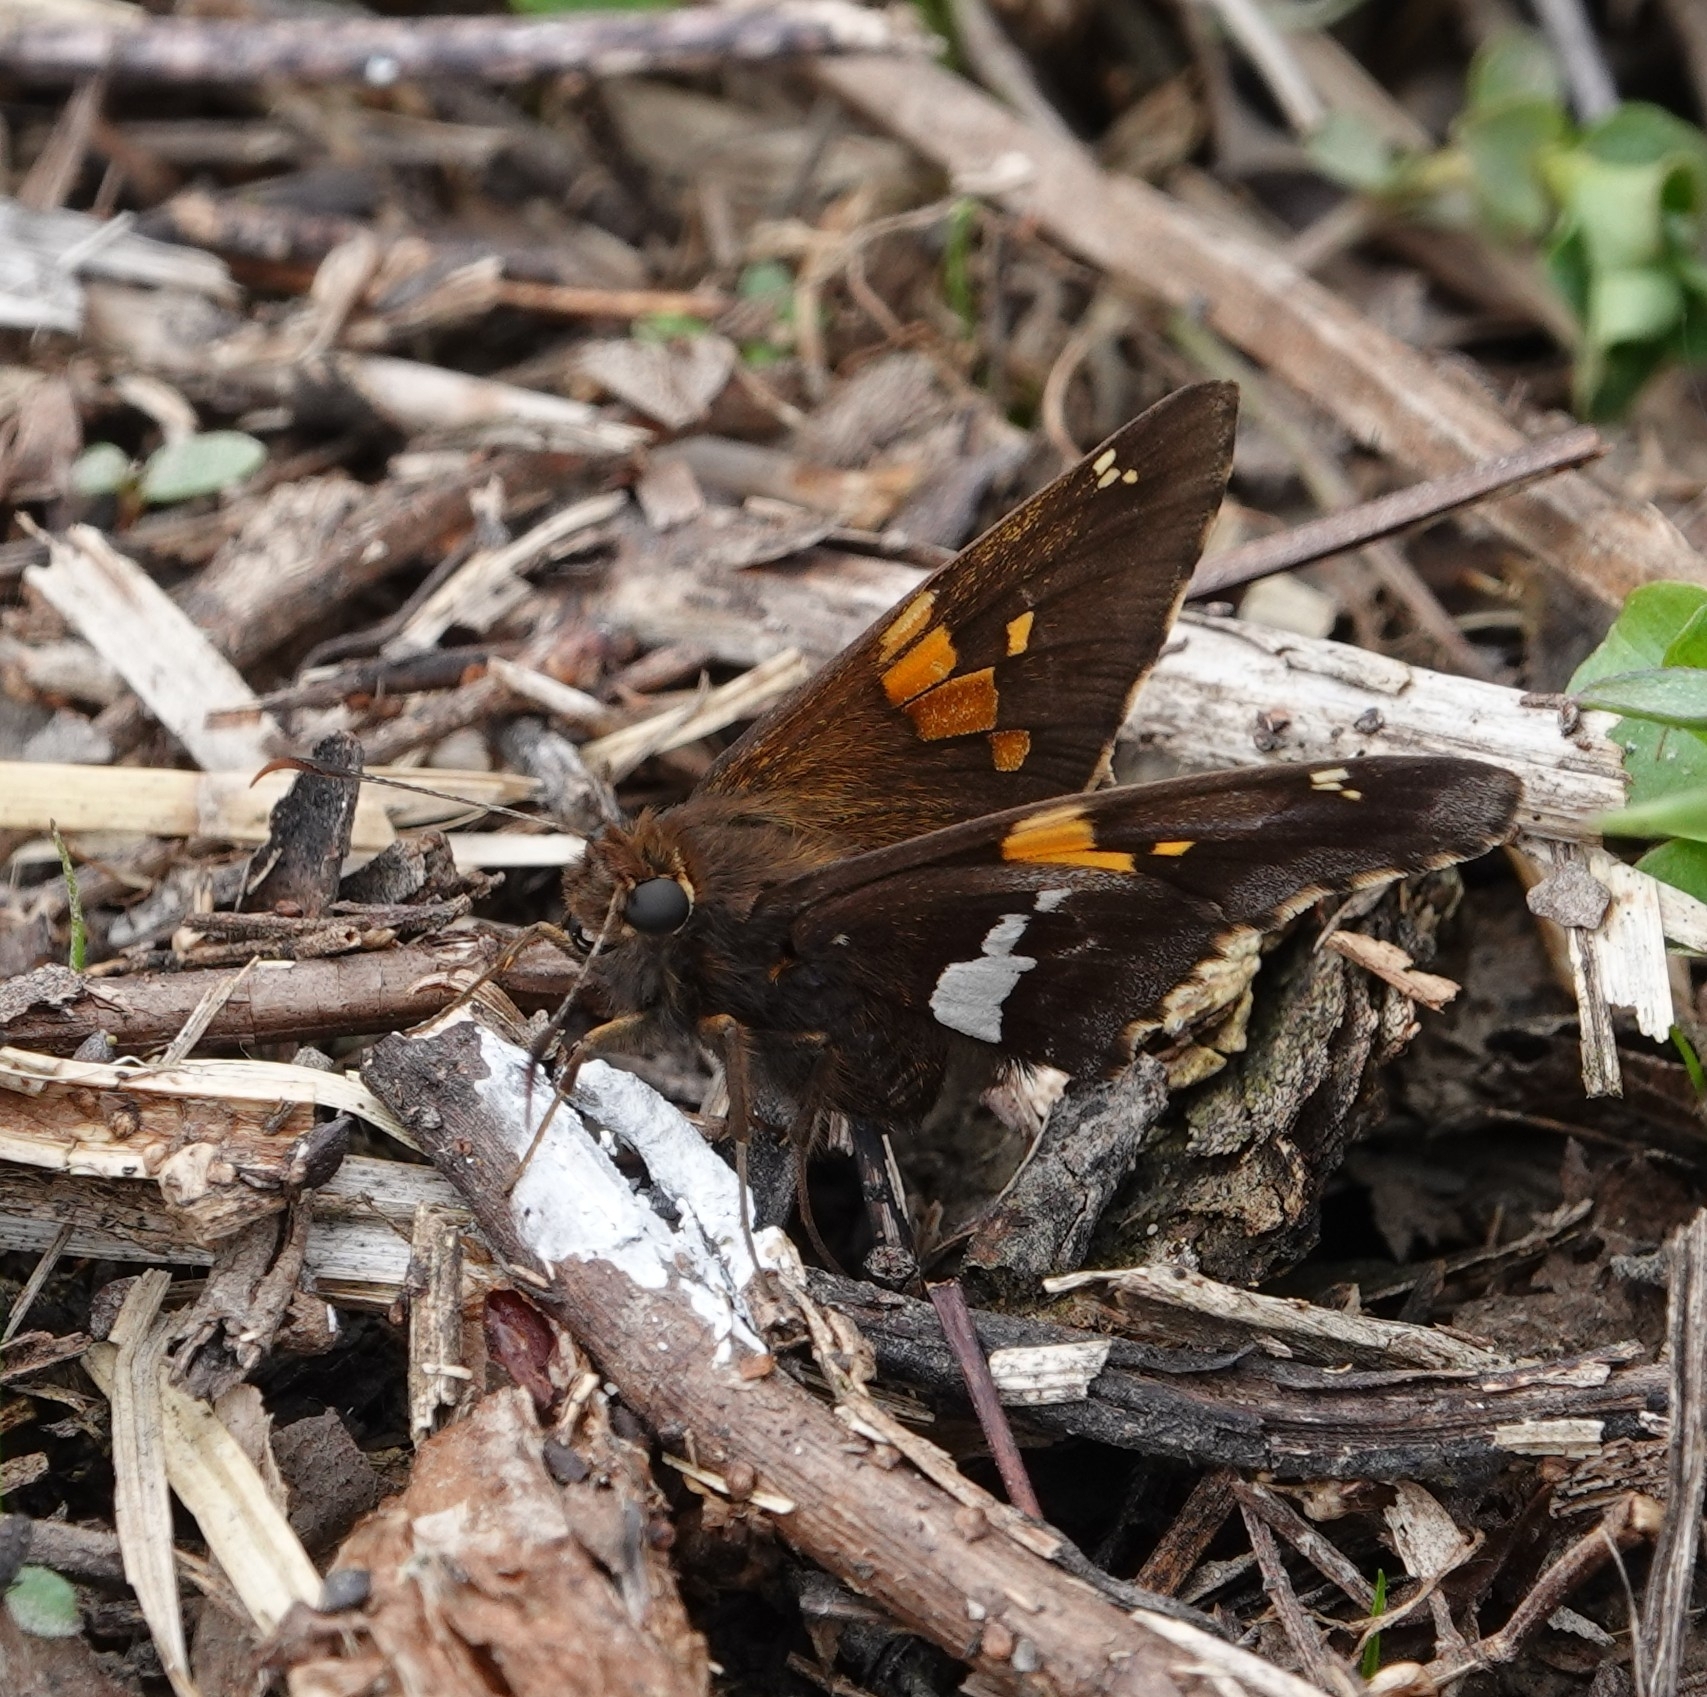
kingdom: Animalia
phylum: Arthropoda
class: Insecta
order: Lepidoptera
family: Hesperiidae
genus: Epargyreus
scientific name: Epargyreus clarus
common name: Silver-spotted skipper
